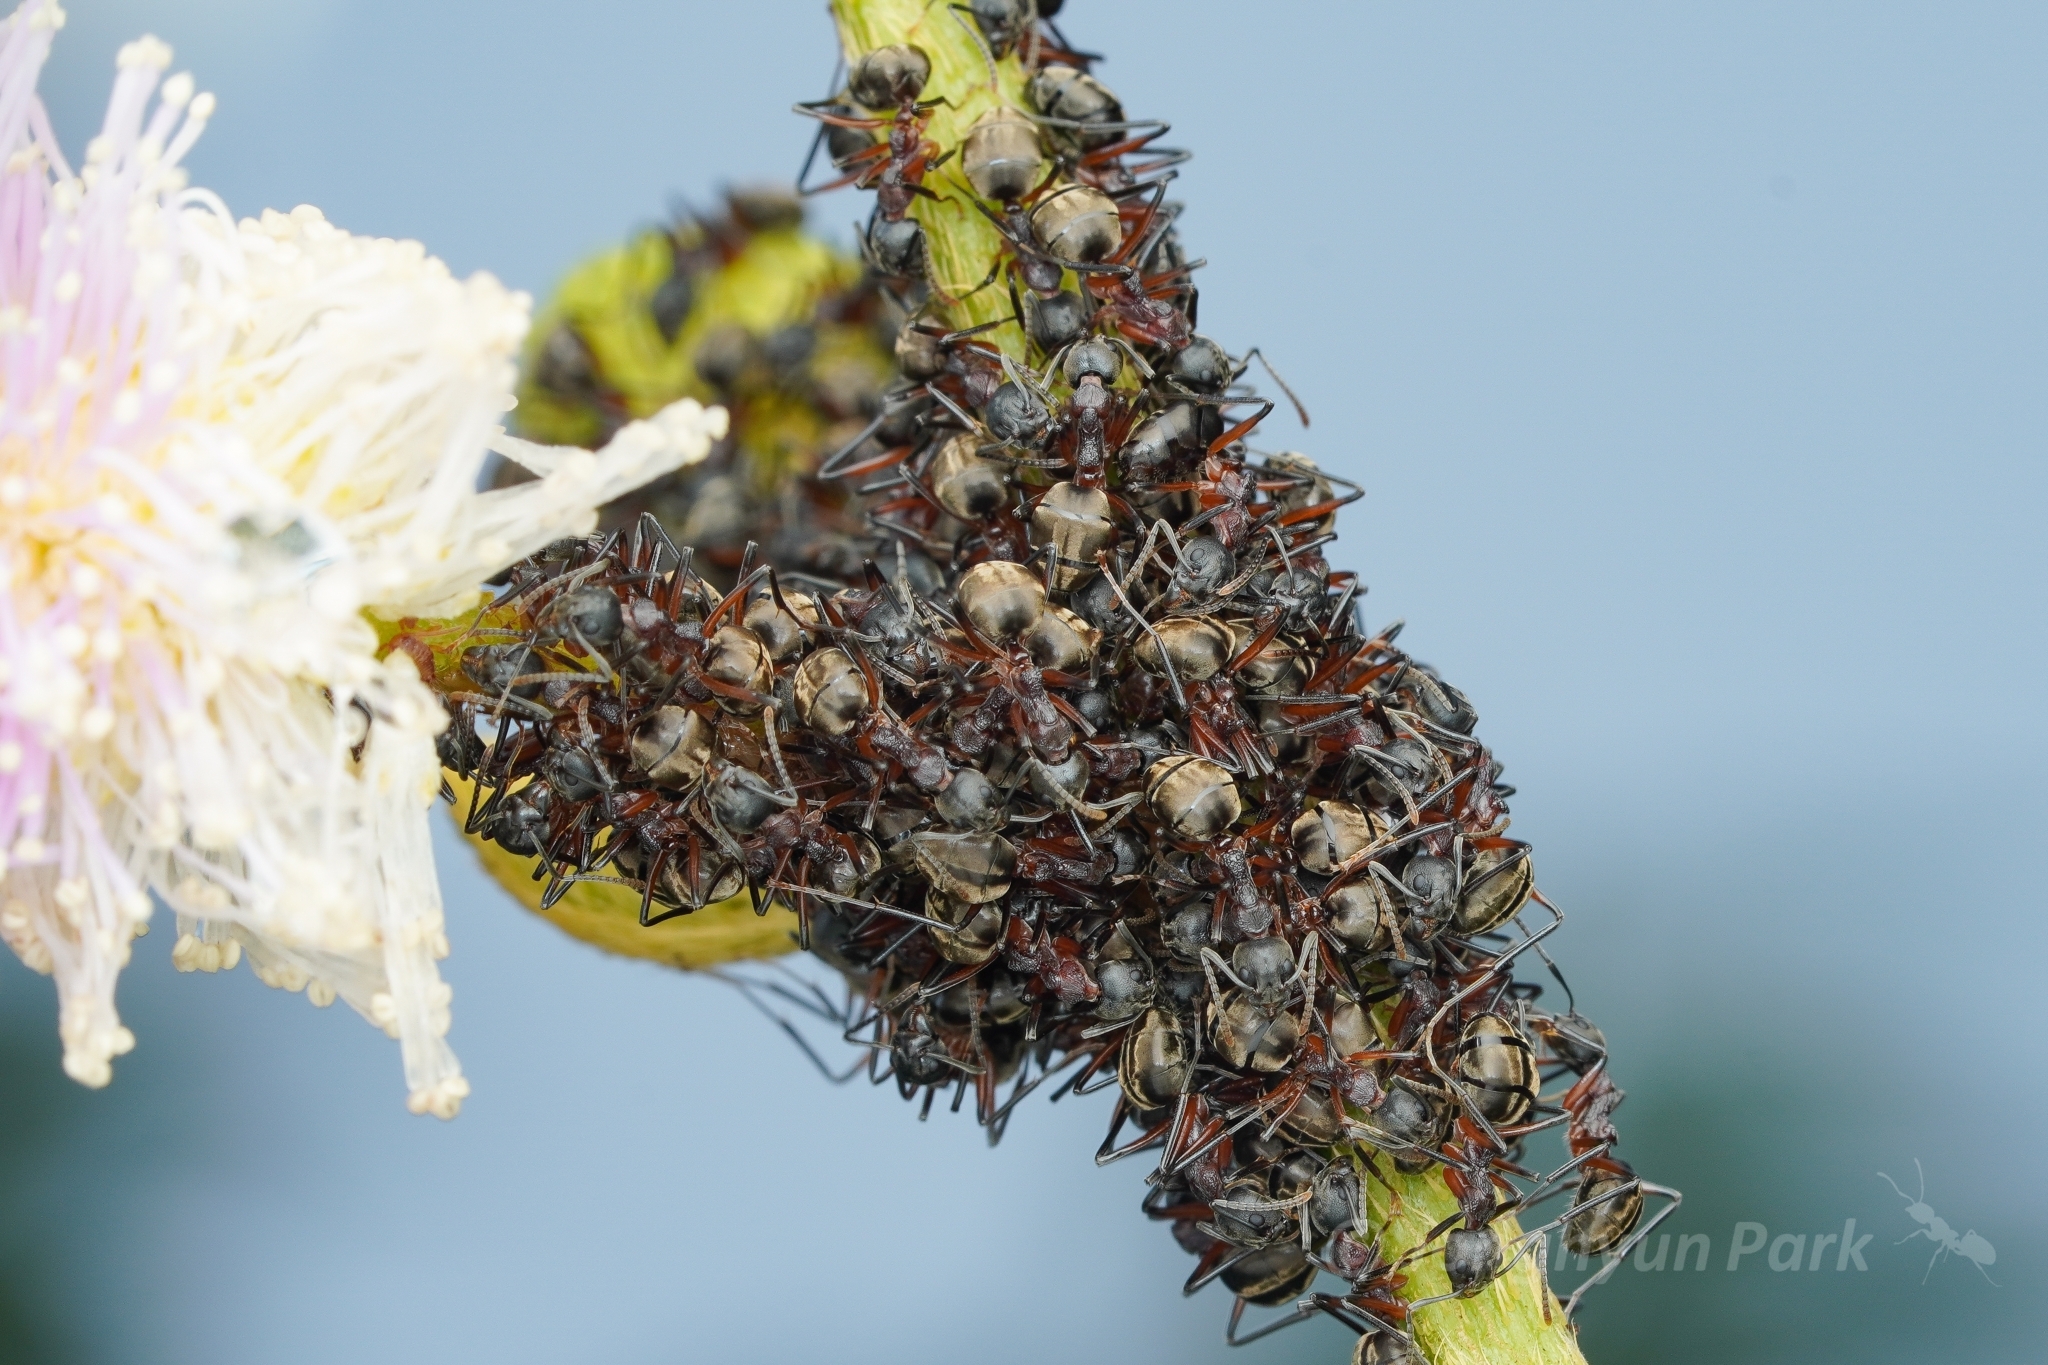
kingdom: Animalia
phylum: Arthropoda
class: Insecta
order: Hymenoptera
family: Formicidae
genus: Dolichoderus
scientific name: Dolichoderus feae
